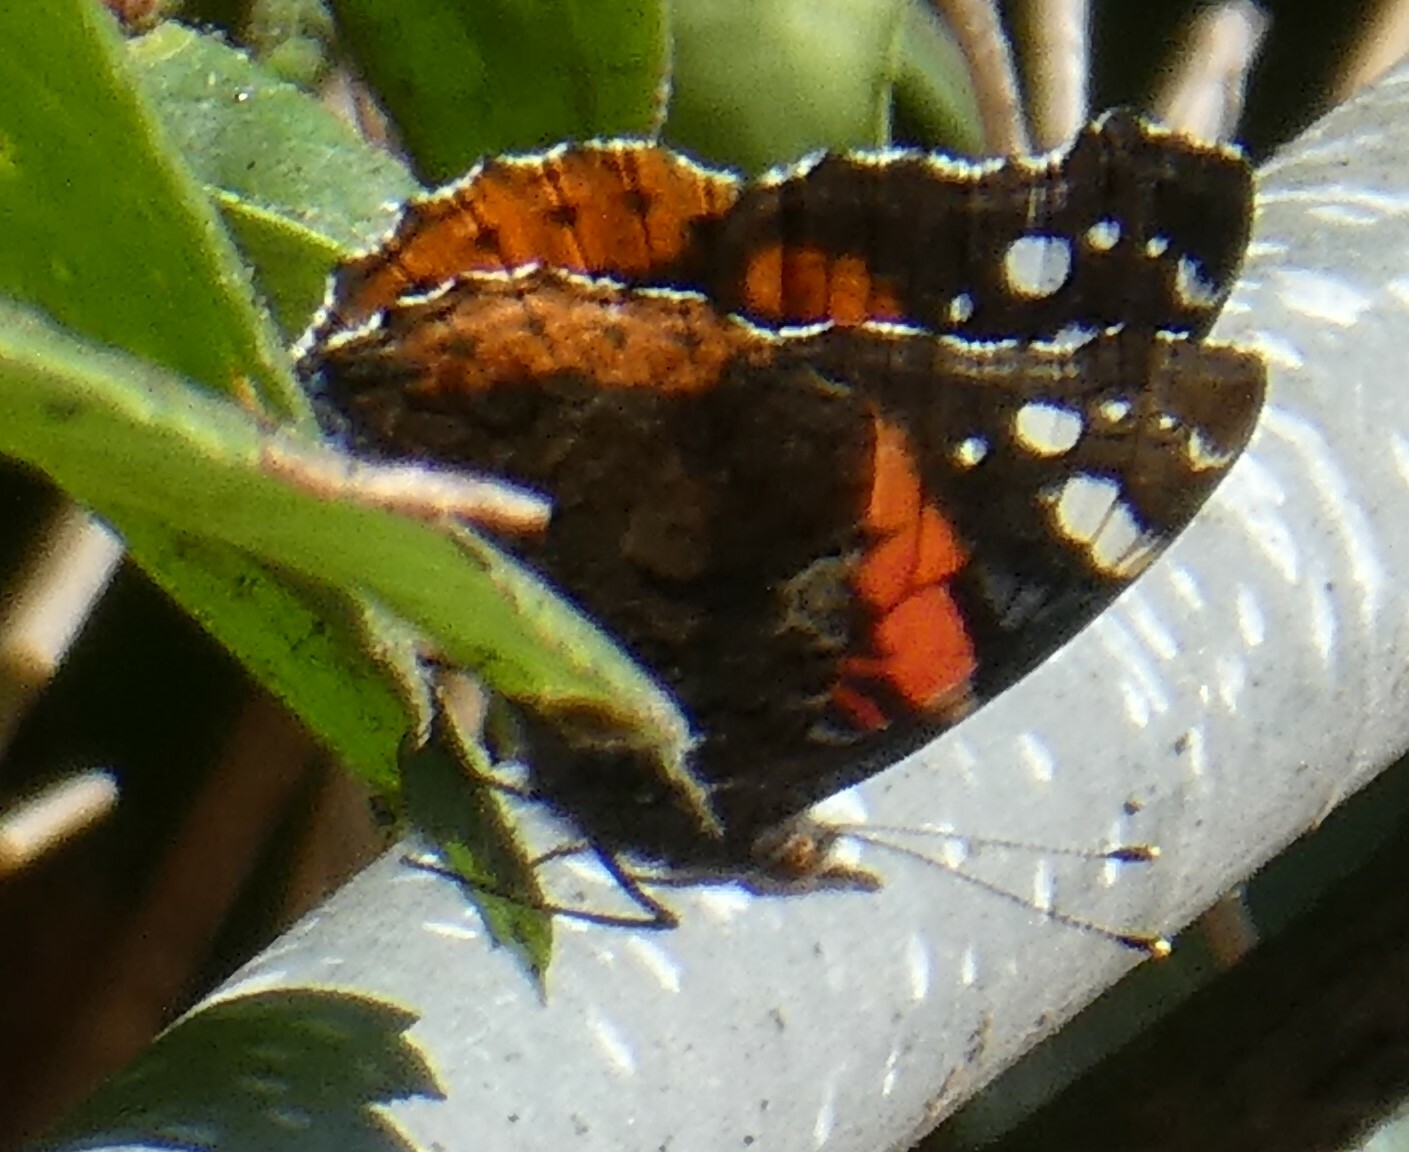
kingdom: Animalia
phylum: Arthropoda
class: Insecta
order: Lepidoptera
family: Nymphalidae
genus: Vanessa
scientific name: Vanessa atalanta
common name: Red admiral
